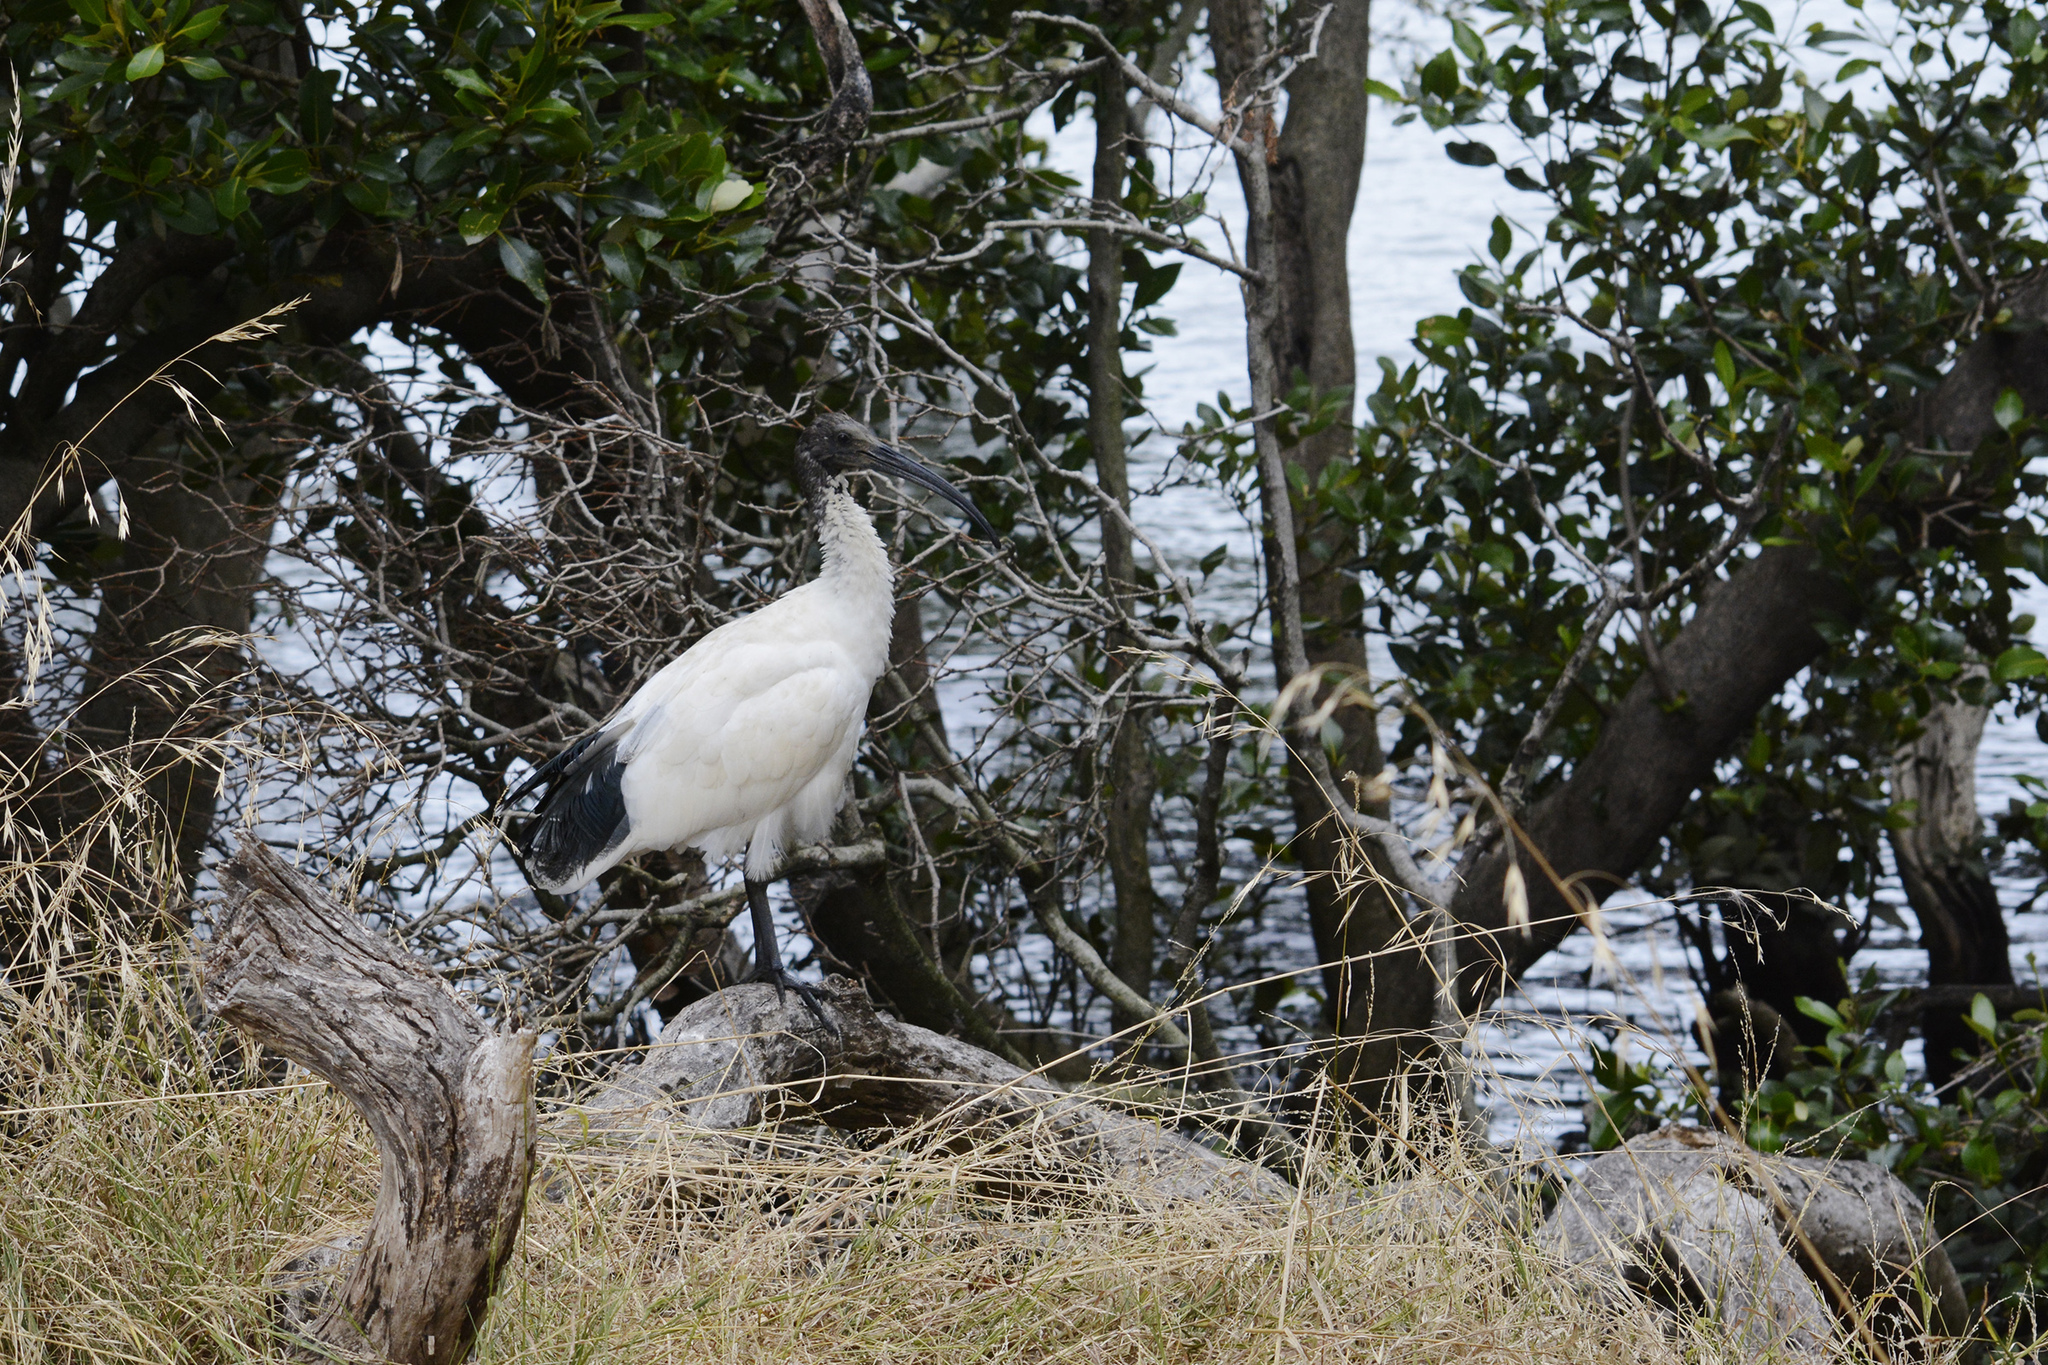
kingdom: Animalia
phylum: Chordata
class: Aves
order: Pelecaniformes
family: Threskiornithidae
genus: Threskiornis
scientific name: Threskiornis molucca
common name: Australian white ibis
